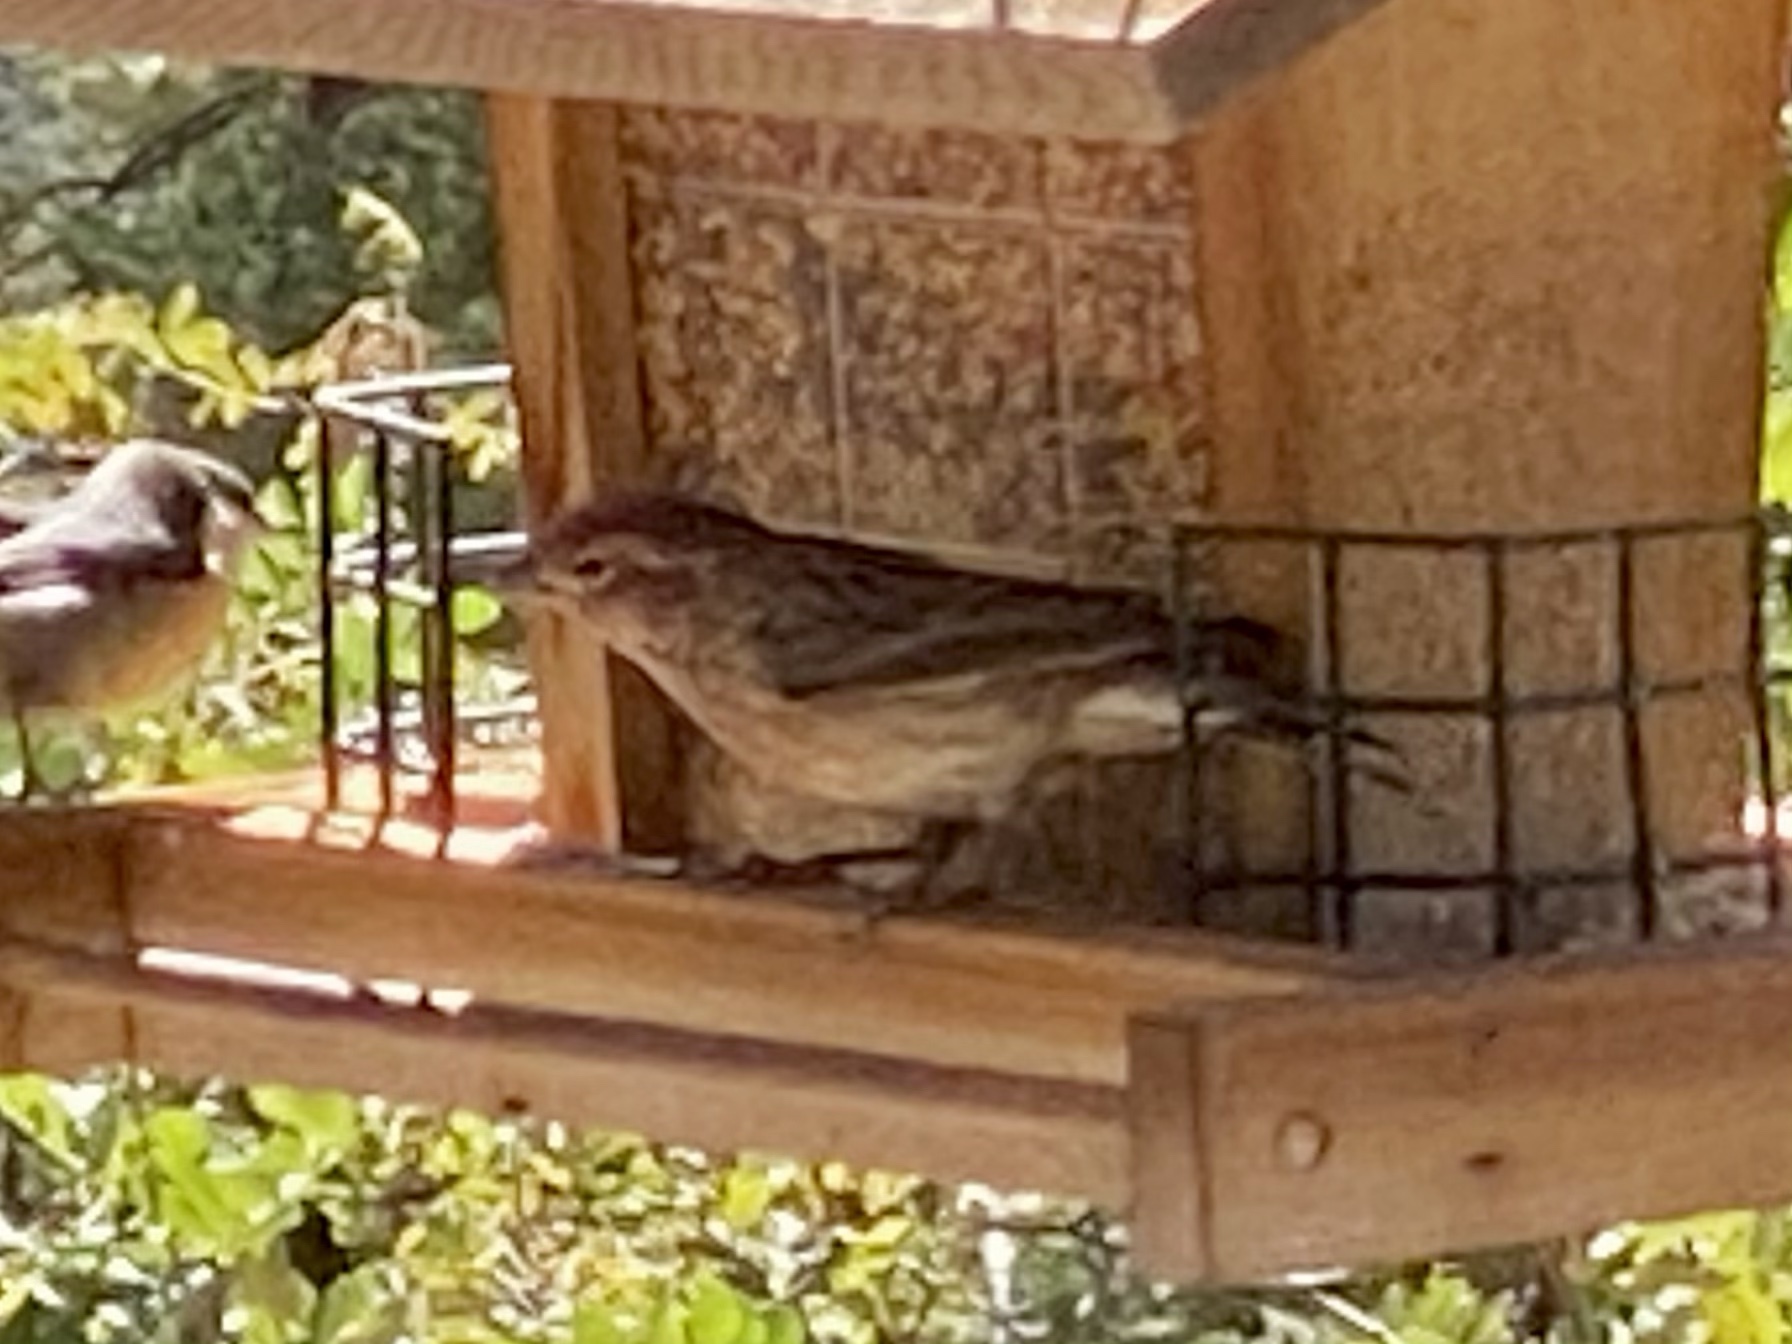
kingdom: Animalia
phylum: Chordata
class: Aves
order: Passeriformes
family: Fringillidae
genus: Haemorhous
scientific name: Haemorhous cassinii
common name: Cassin's finch
